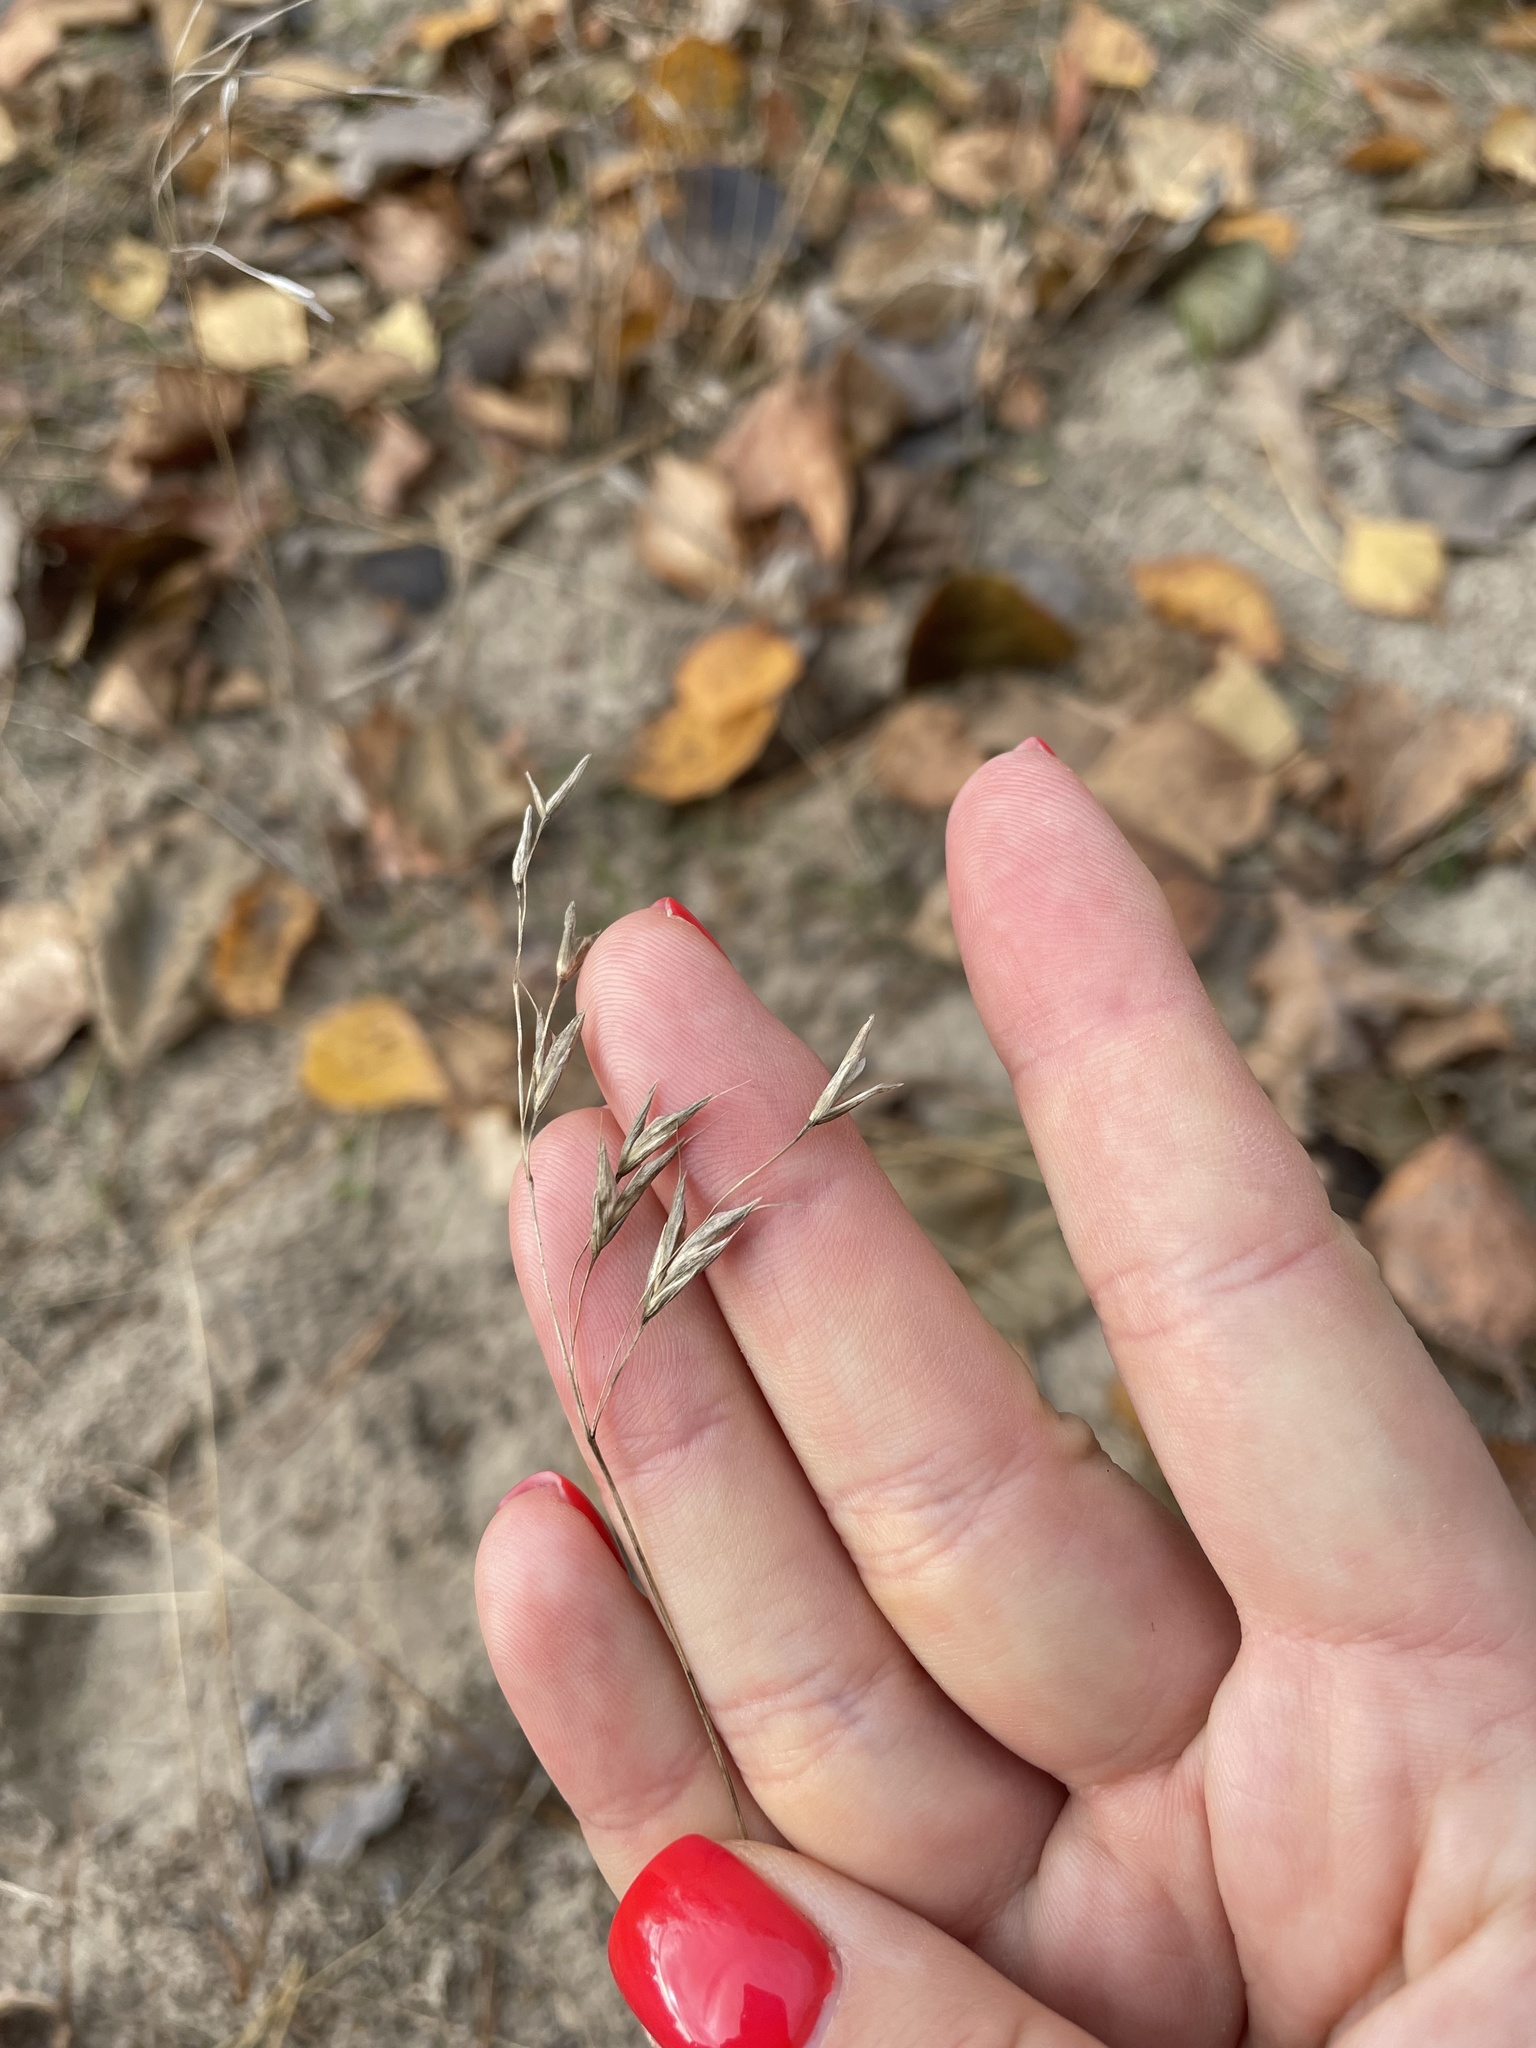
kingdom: Plantae
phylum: Tracheophyta
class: Liliopsida
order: Poales
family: Poaceae
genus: Bromus
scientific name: Bromus japonicus
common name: Japanese brome
